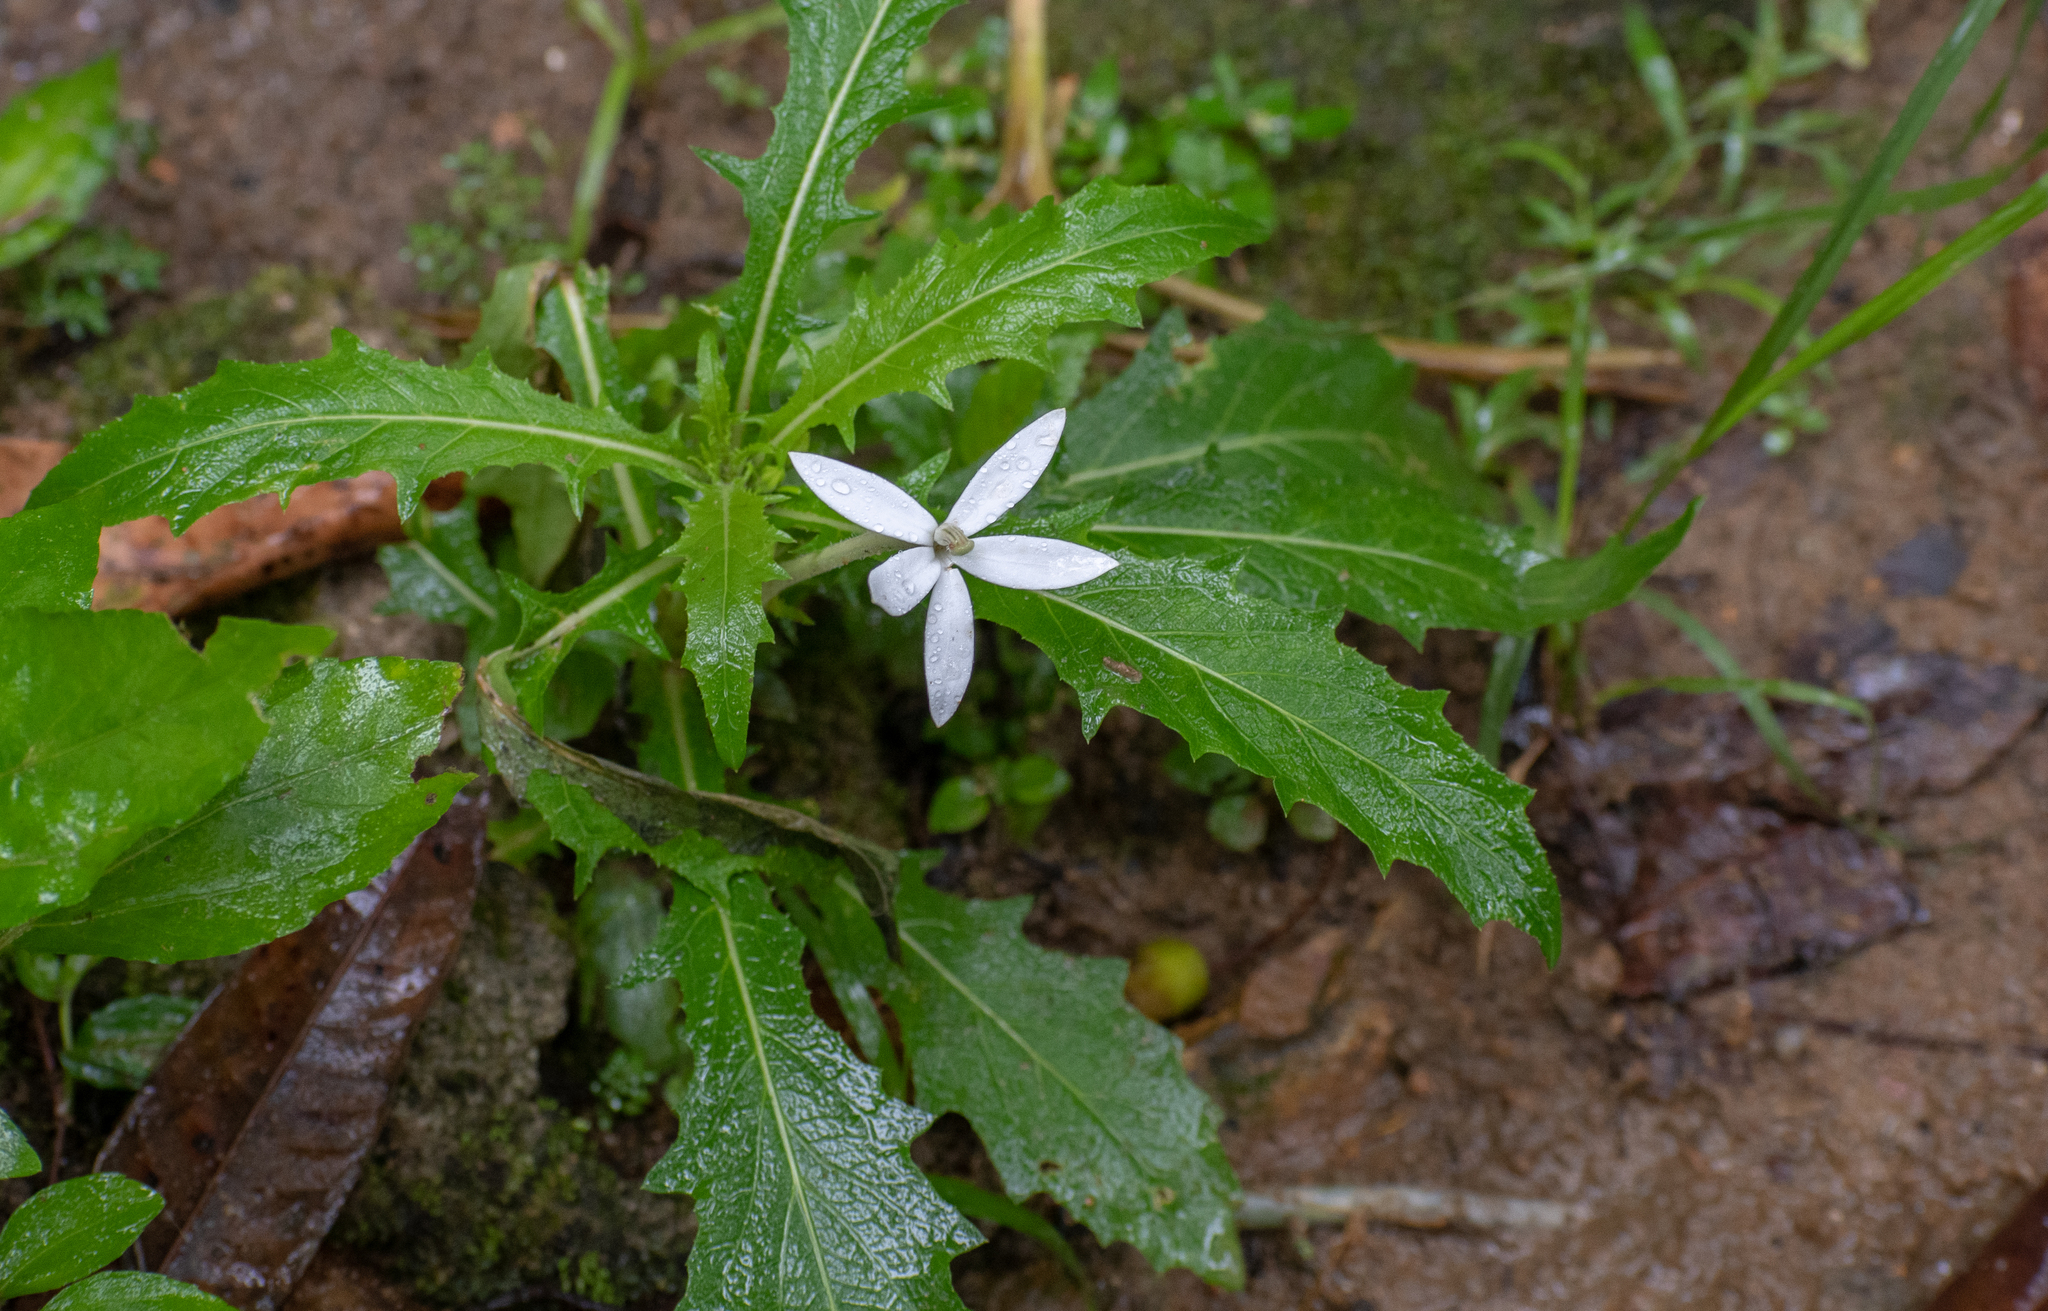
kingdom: Plantae
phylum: Tracheophyta
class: Magnoliopsida
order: Asterales
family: Campanulaceae
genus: Hippobroma
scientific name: Hippobroma longiflora
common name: Madamfate
